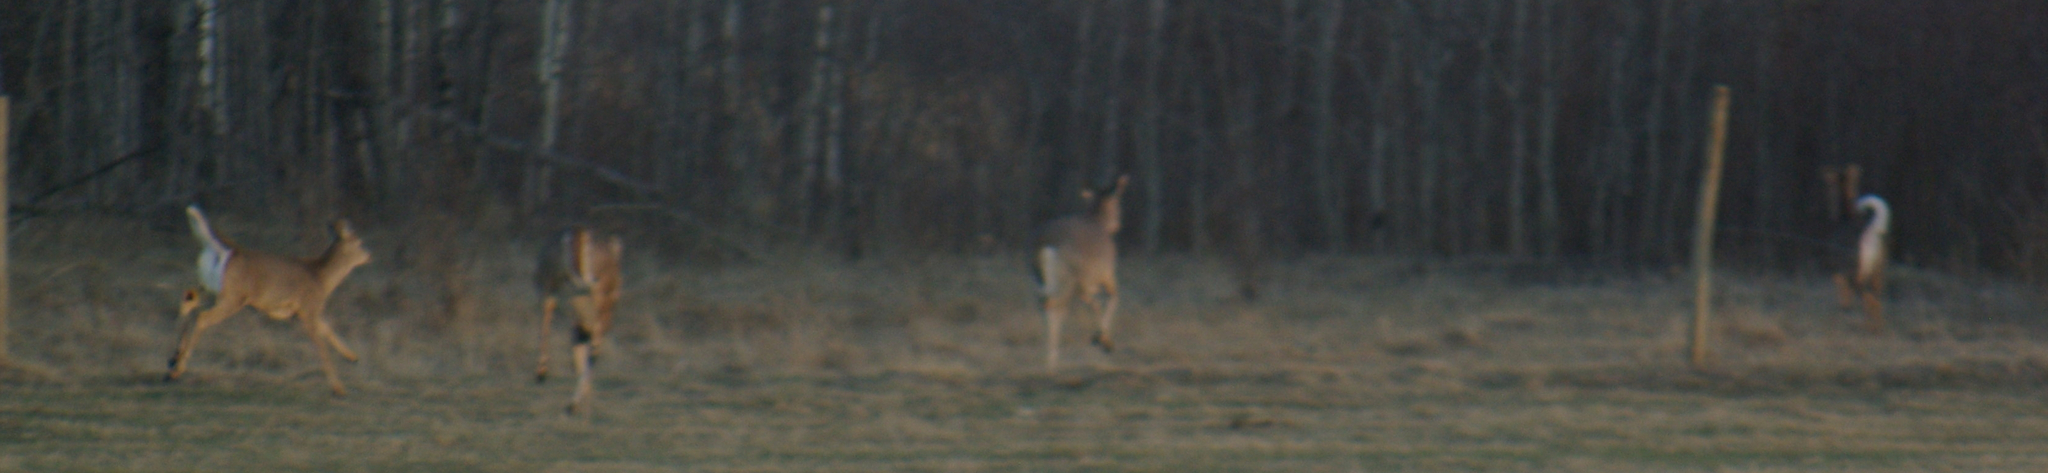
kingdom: Animalia
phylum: Chordata
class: Mammalia
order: Artiodactyla
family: Cervidae
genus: Odocoileus
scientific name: Odocoileus virginianus
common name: White-tailed deer
